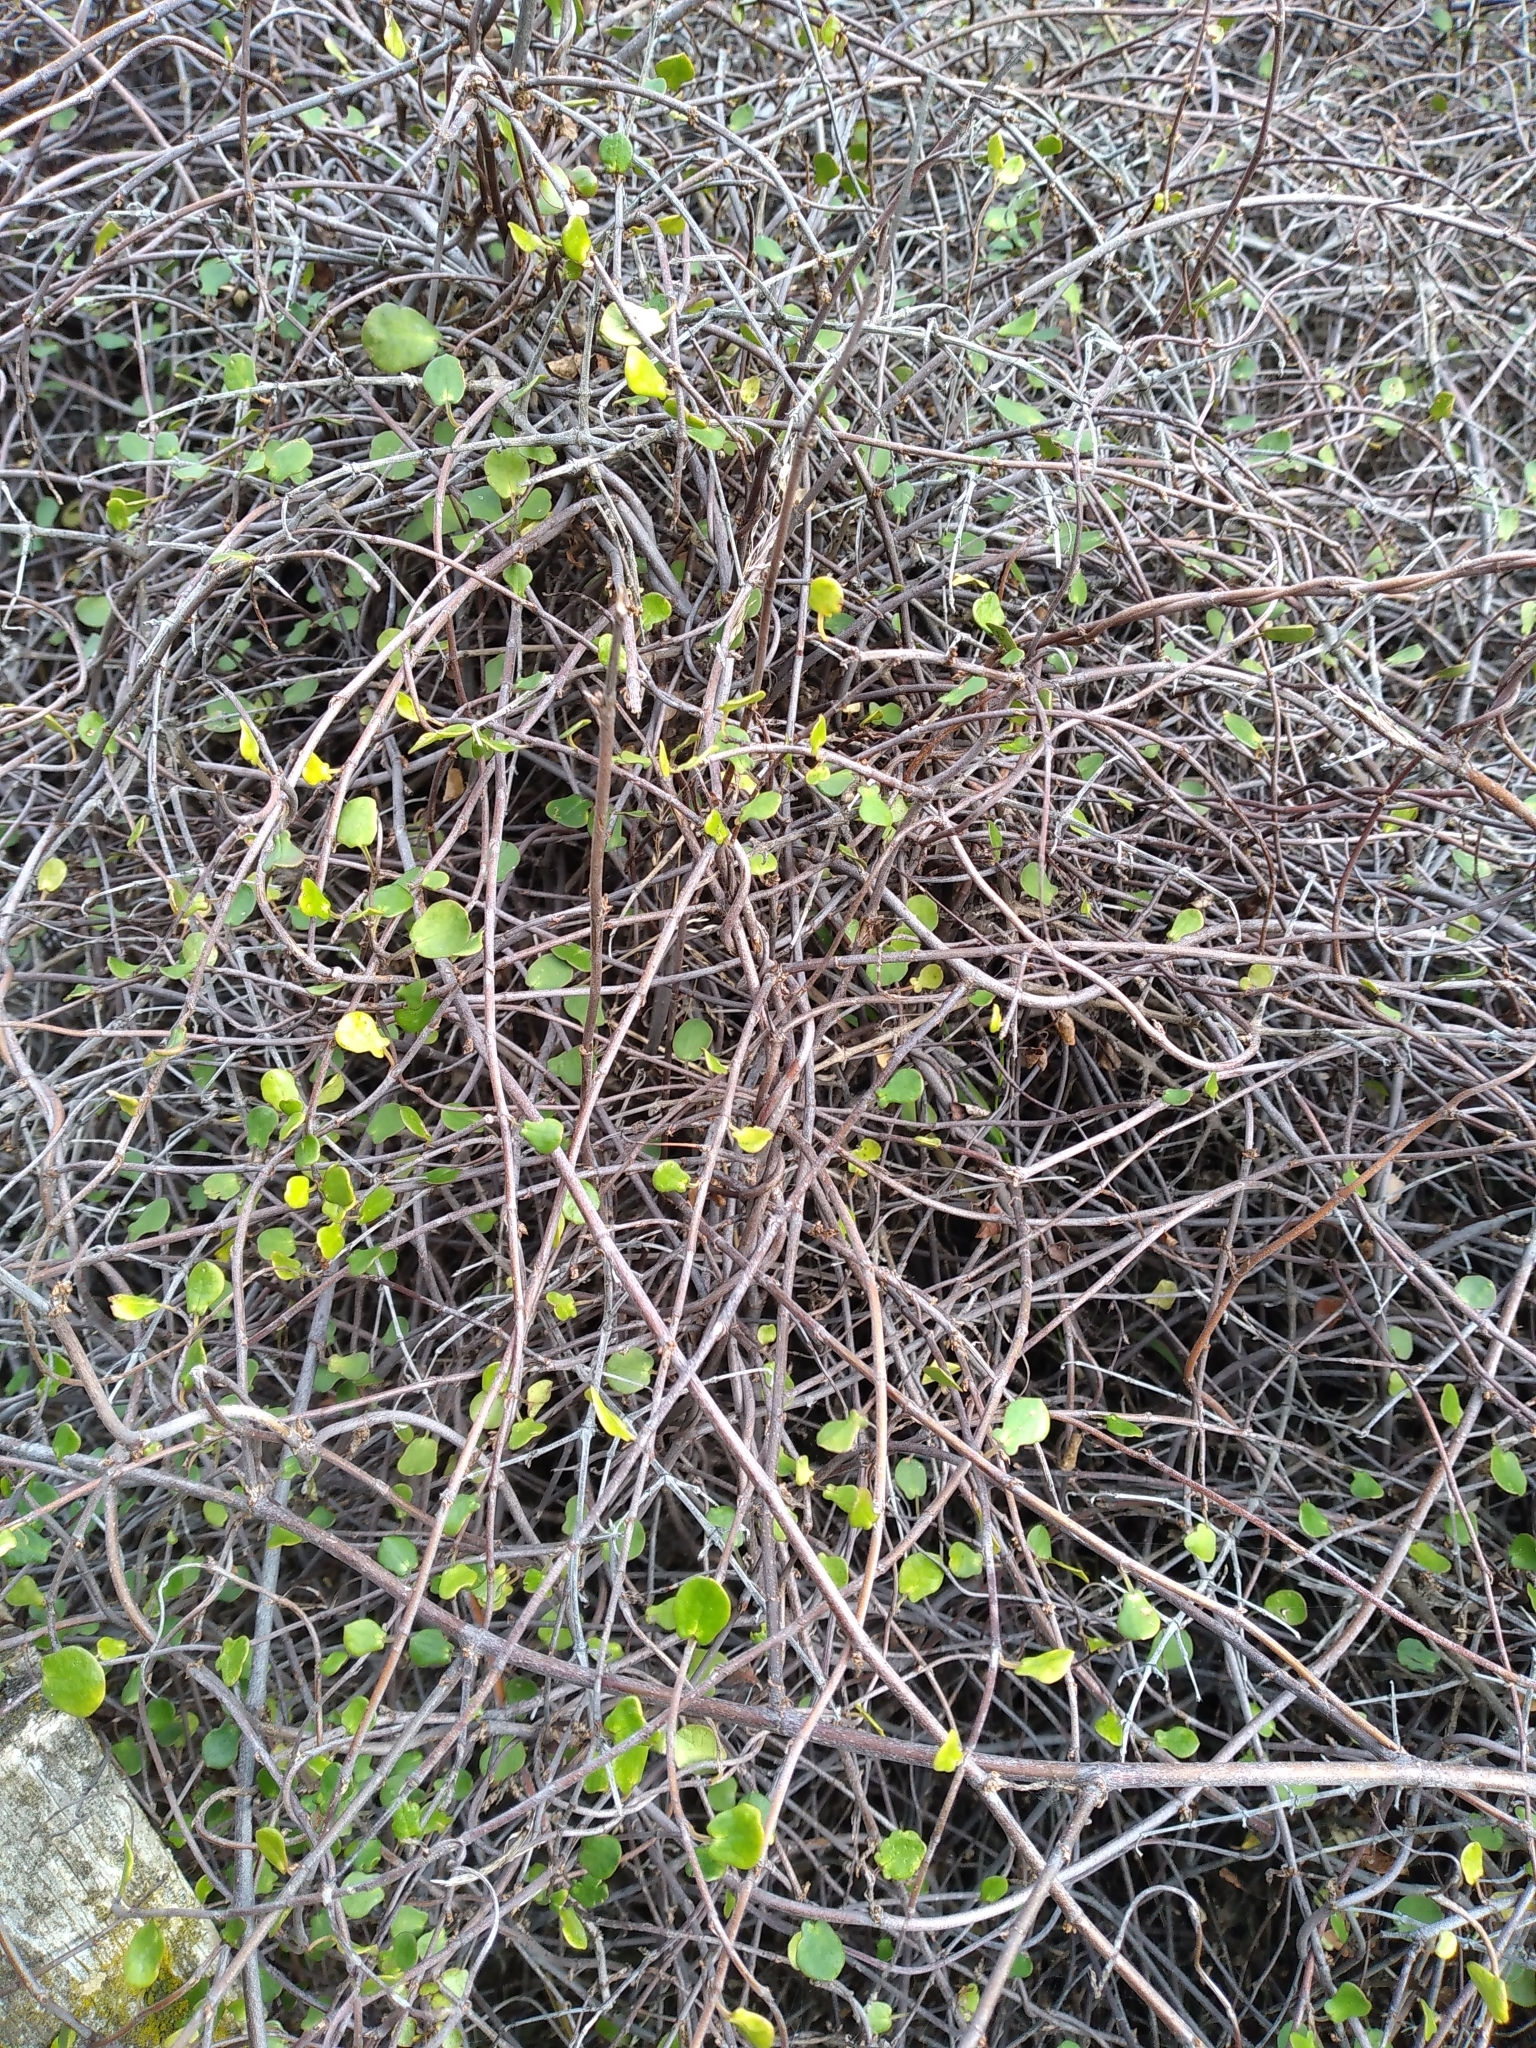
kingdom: Plantae
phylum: Tracheophyta
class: Magnoliopsida
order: Caryophyllales
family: Polygonaceae
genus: Muehlenbeckia
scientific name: Muehlenbeckia complexa
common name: Wireplant
